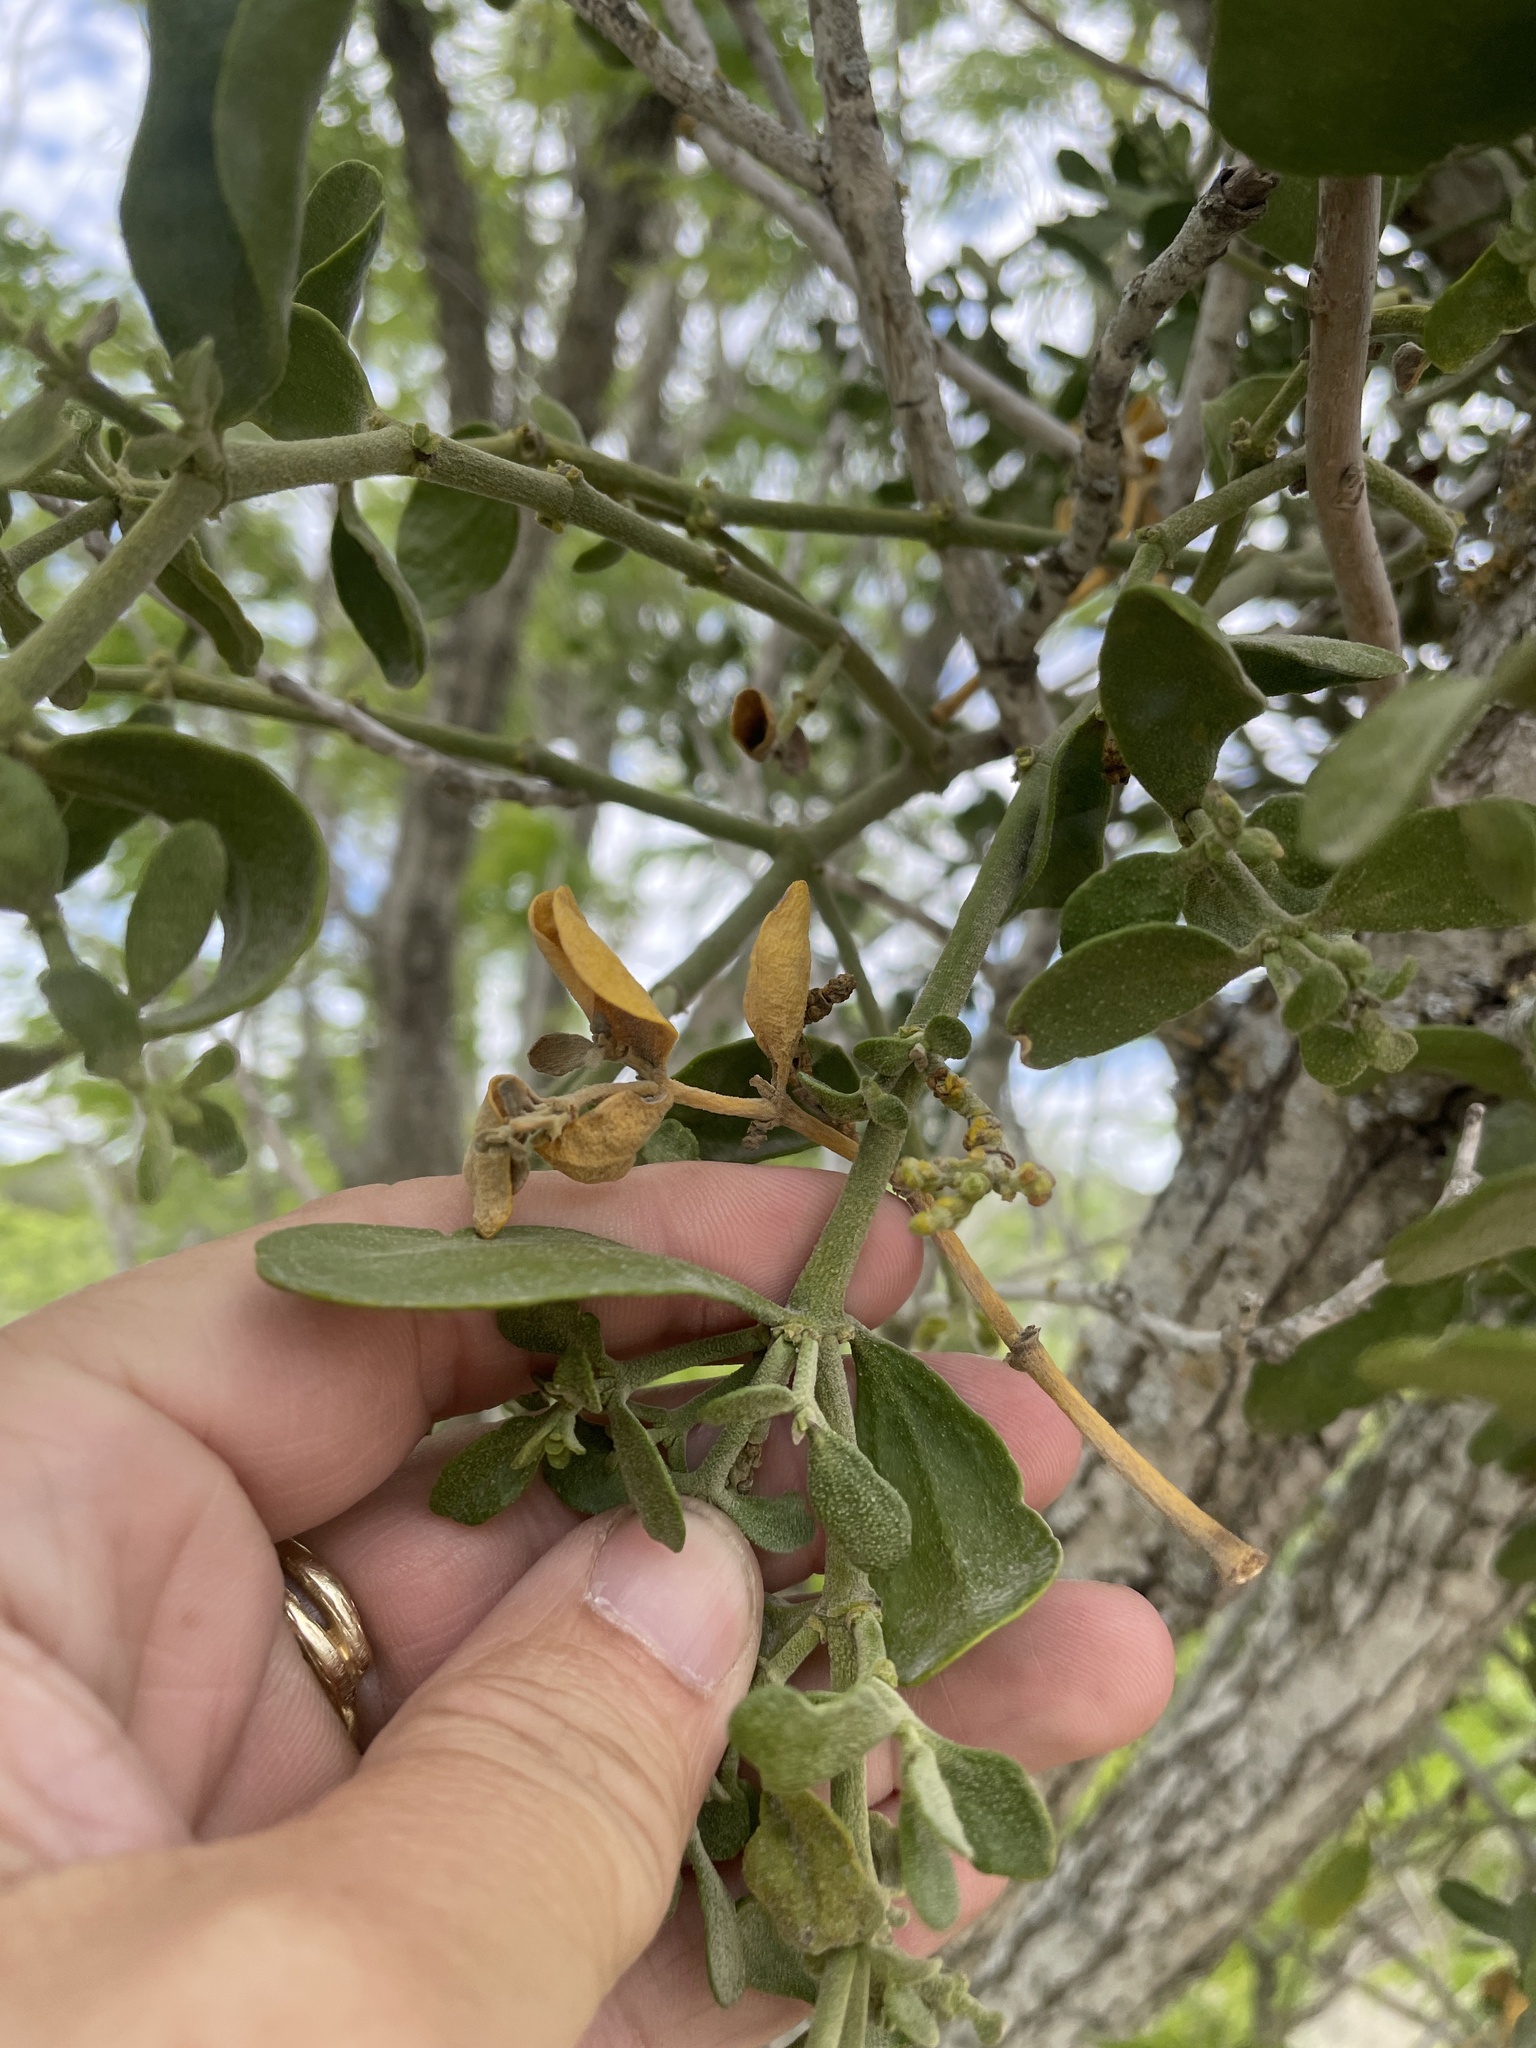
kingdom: Plantae
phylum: Tracheophyta
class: Magnoliopsida
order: Santalales
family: Viscaceae
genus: Phoradendron
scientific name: Phoradendron leucarpum
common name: Pacific mistletoe
